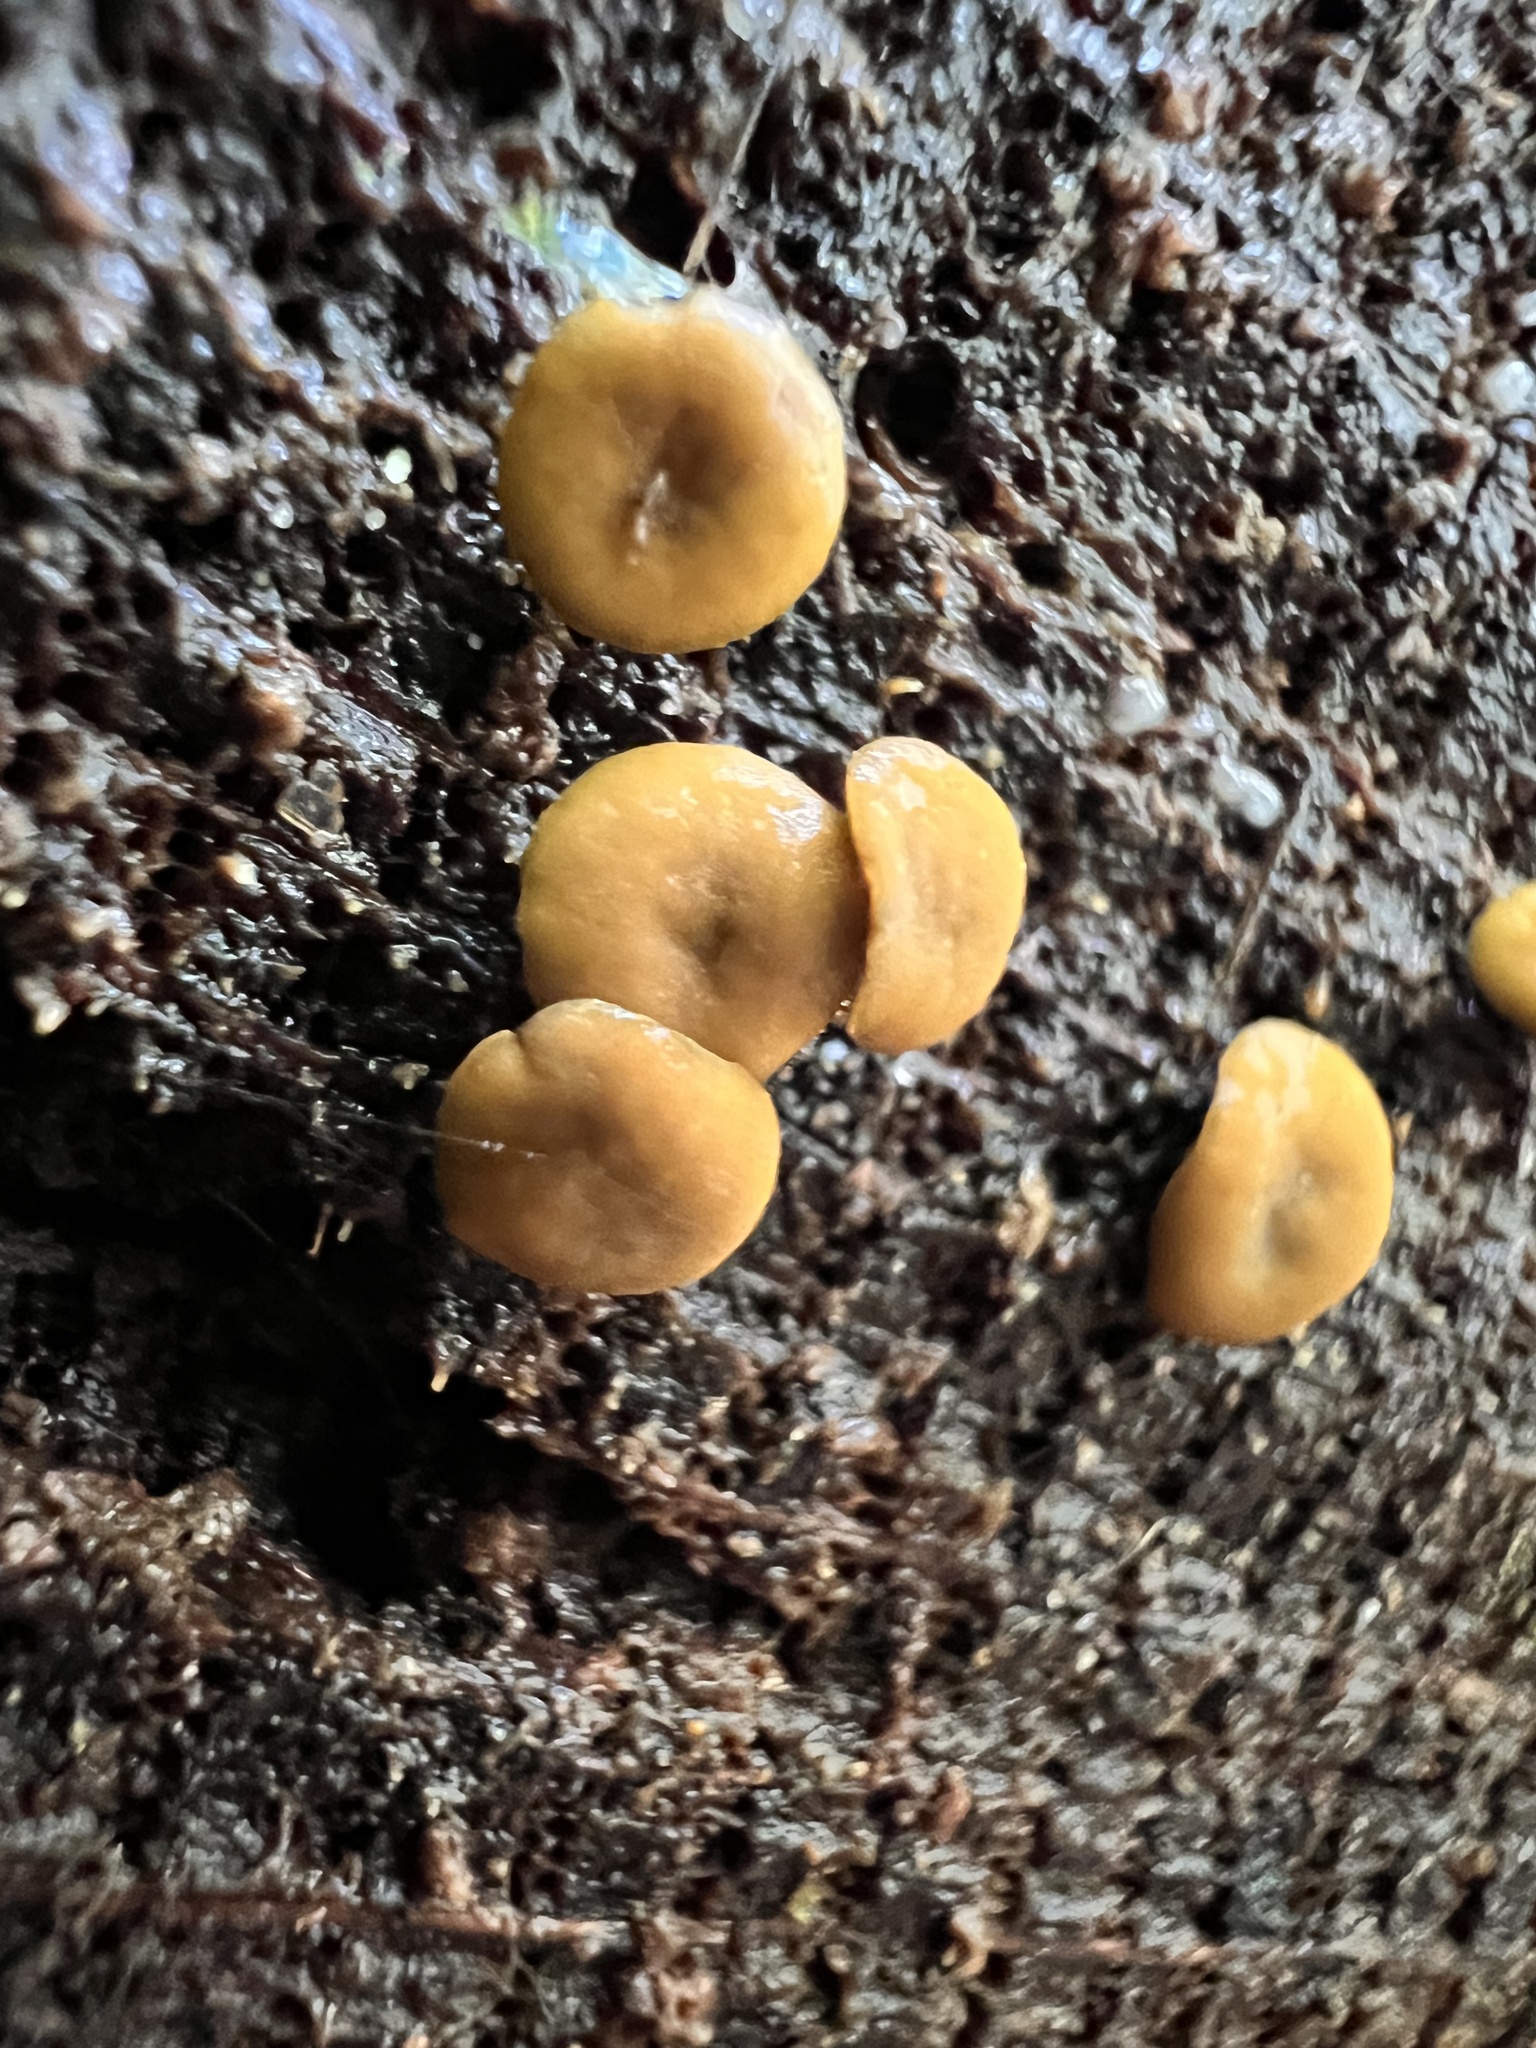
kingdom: Fungi
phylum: Ascomycota
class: Leotiomycetes
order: Helotiales
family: Cenangiaceae
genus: Chlorencoelia
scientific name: Chlorencoelia versiformis
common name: Flea's ear
